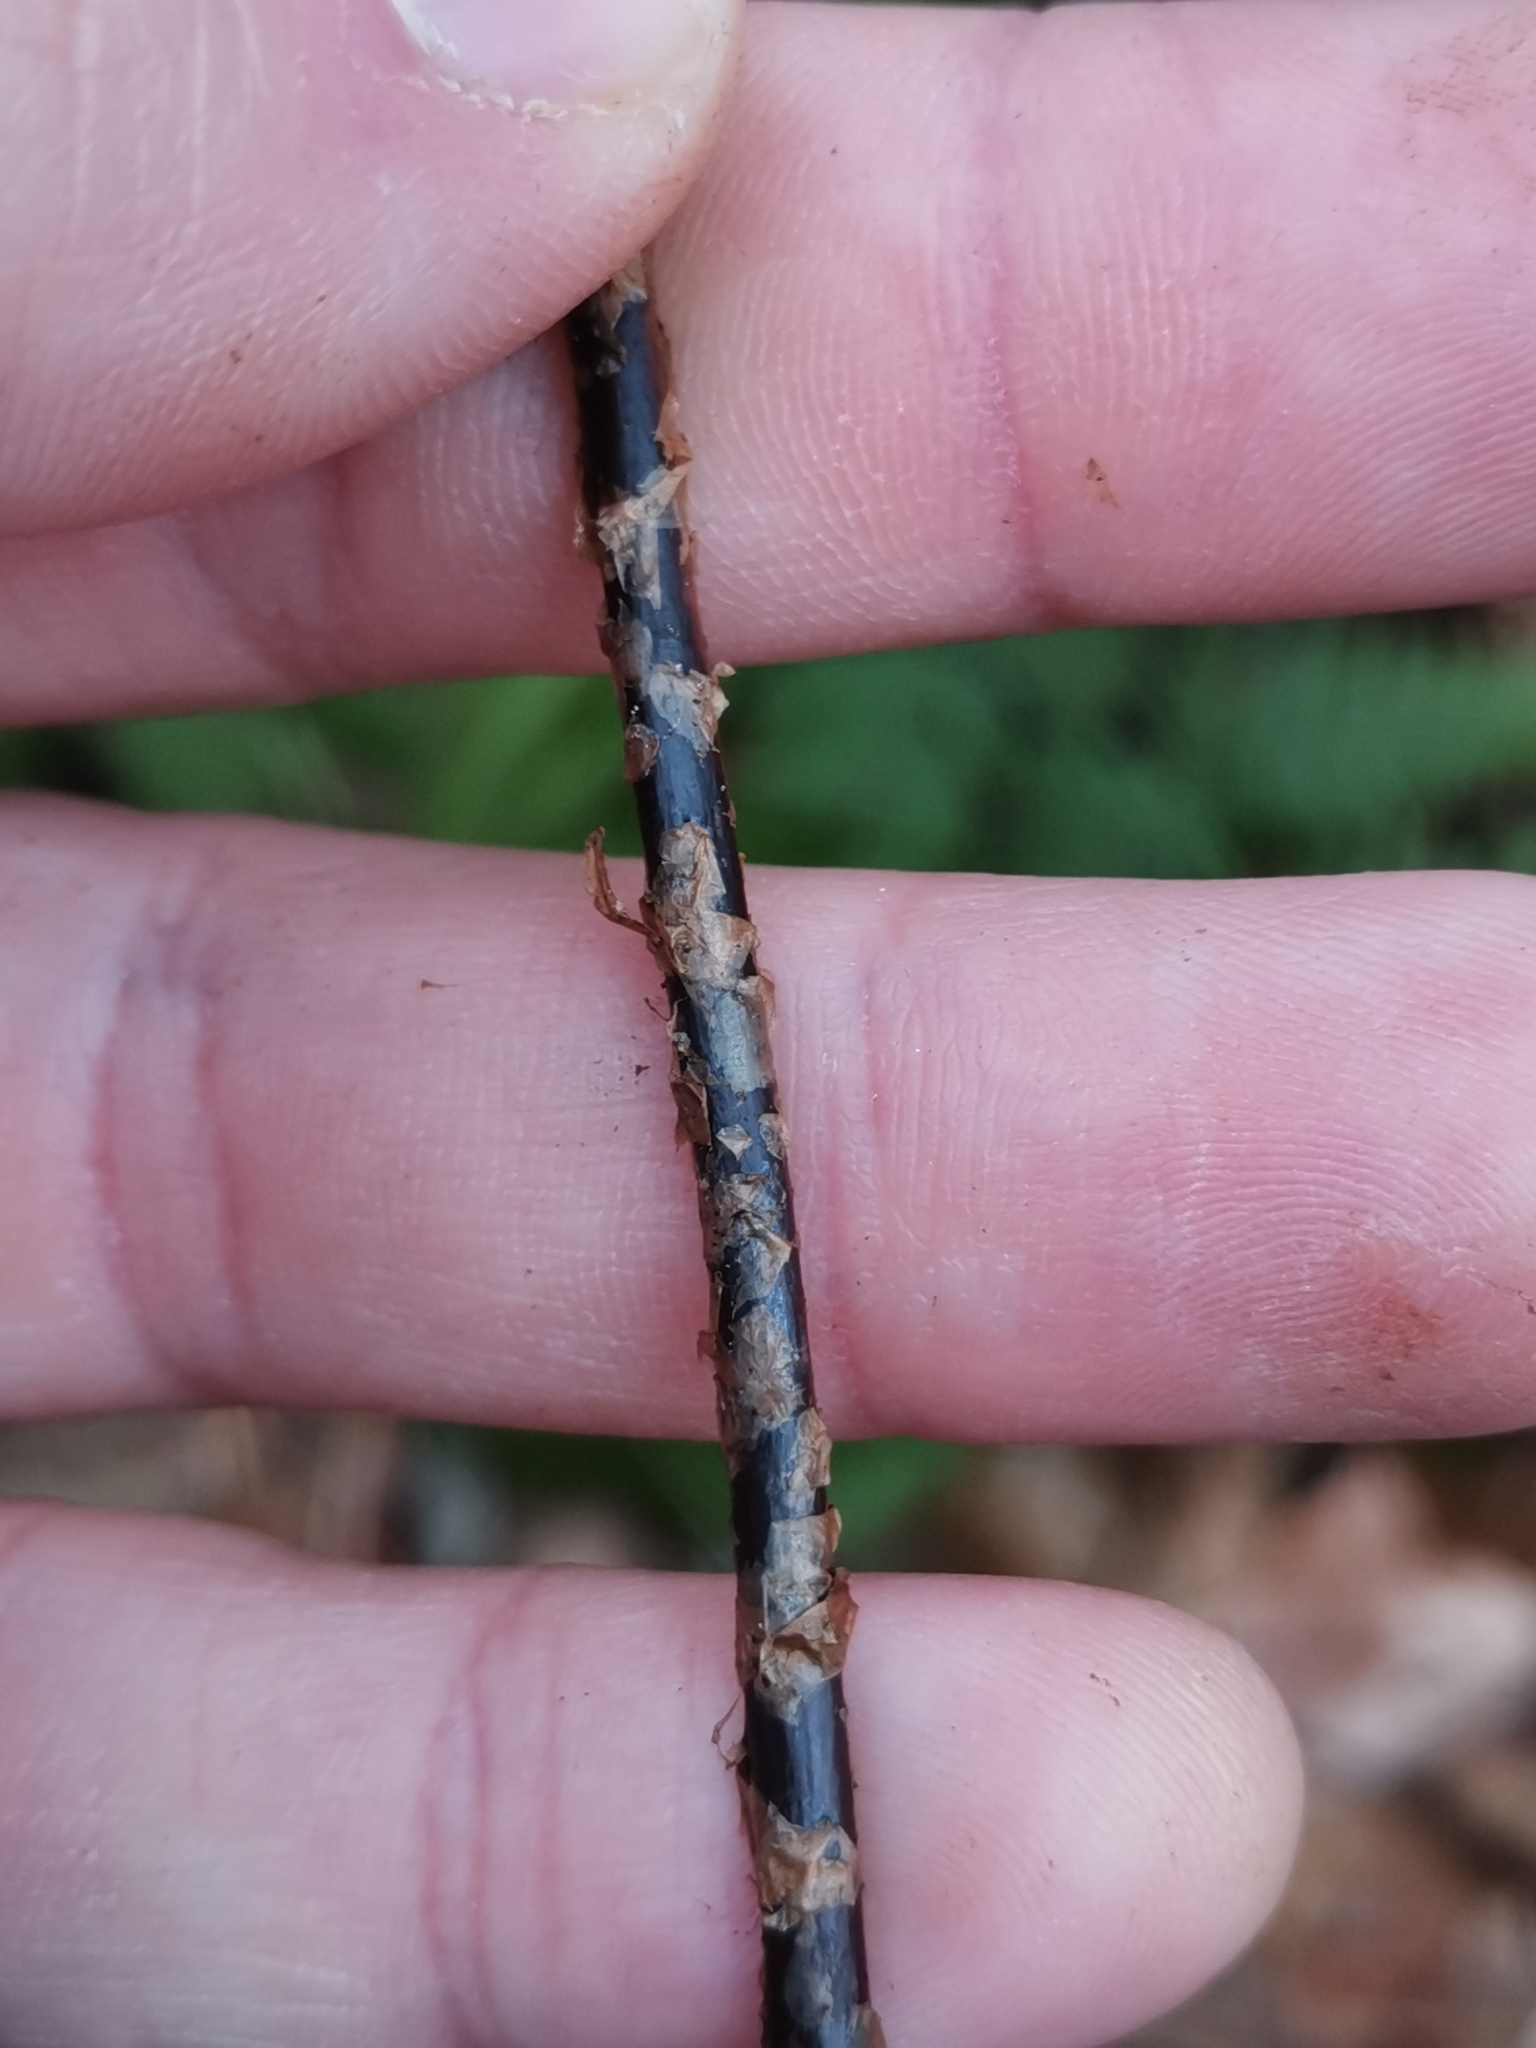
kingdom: Plantae
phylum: Tracheophyta
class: Polypodiopsida
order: Polypodiales
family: Dryopteridaceae
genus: Dryopteris
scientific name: Dryopteris carthusiana
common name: Narrow buckler-fern
